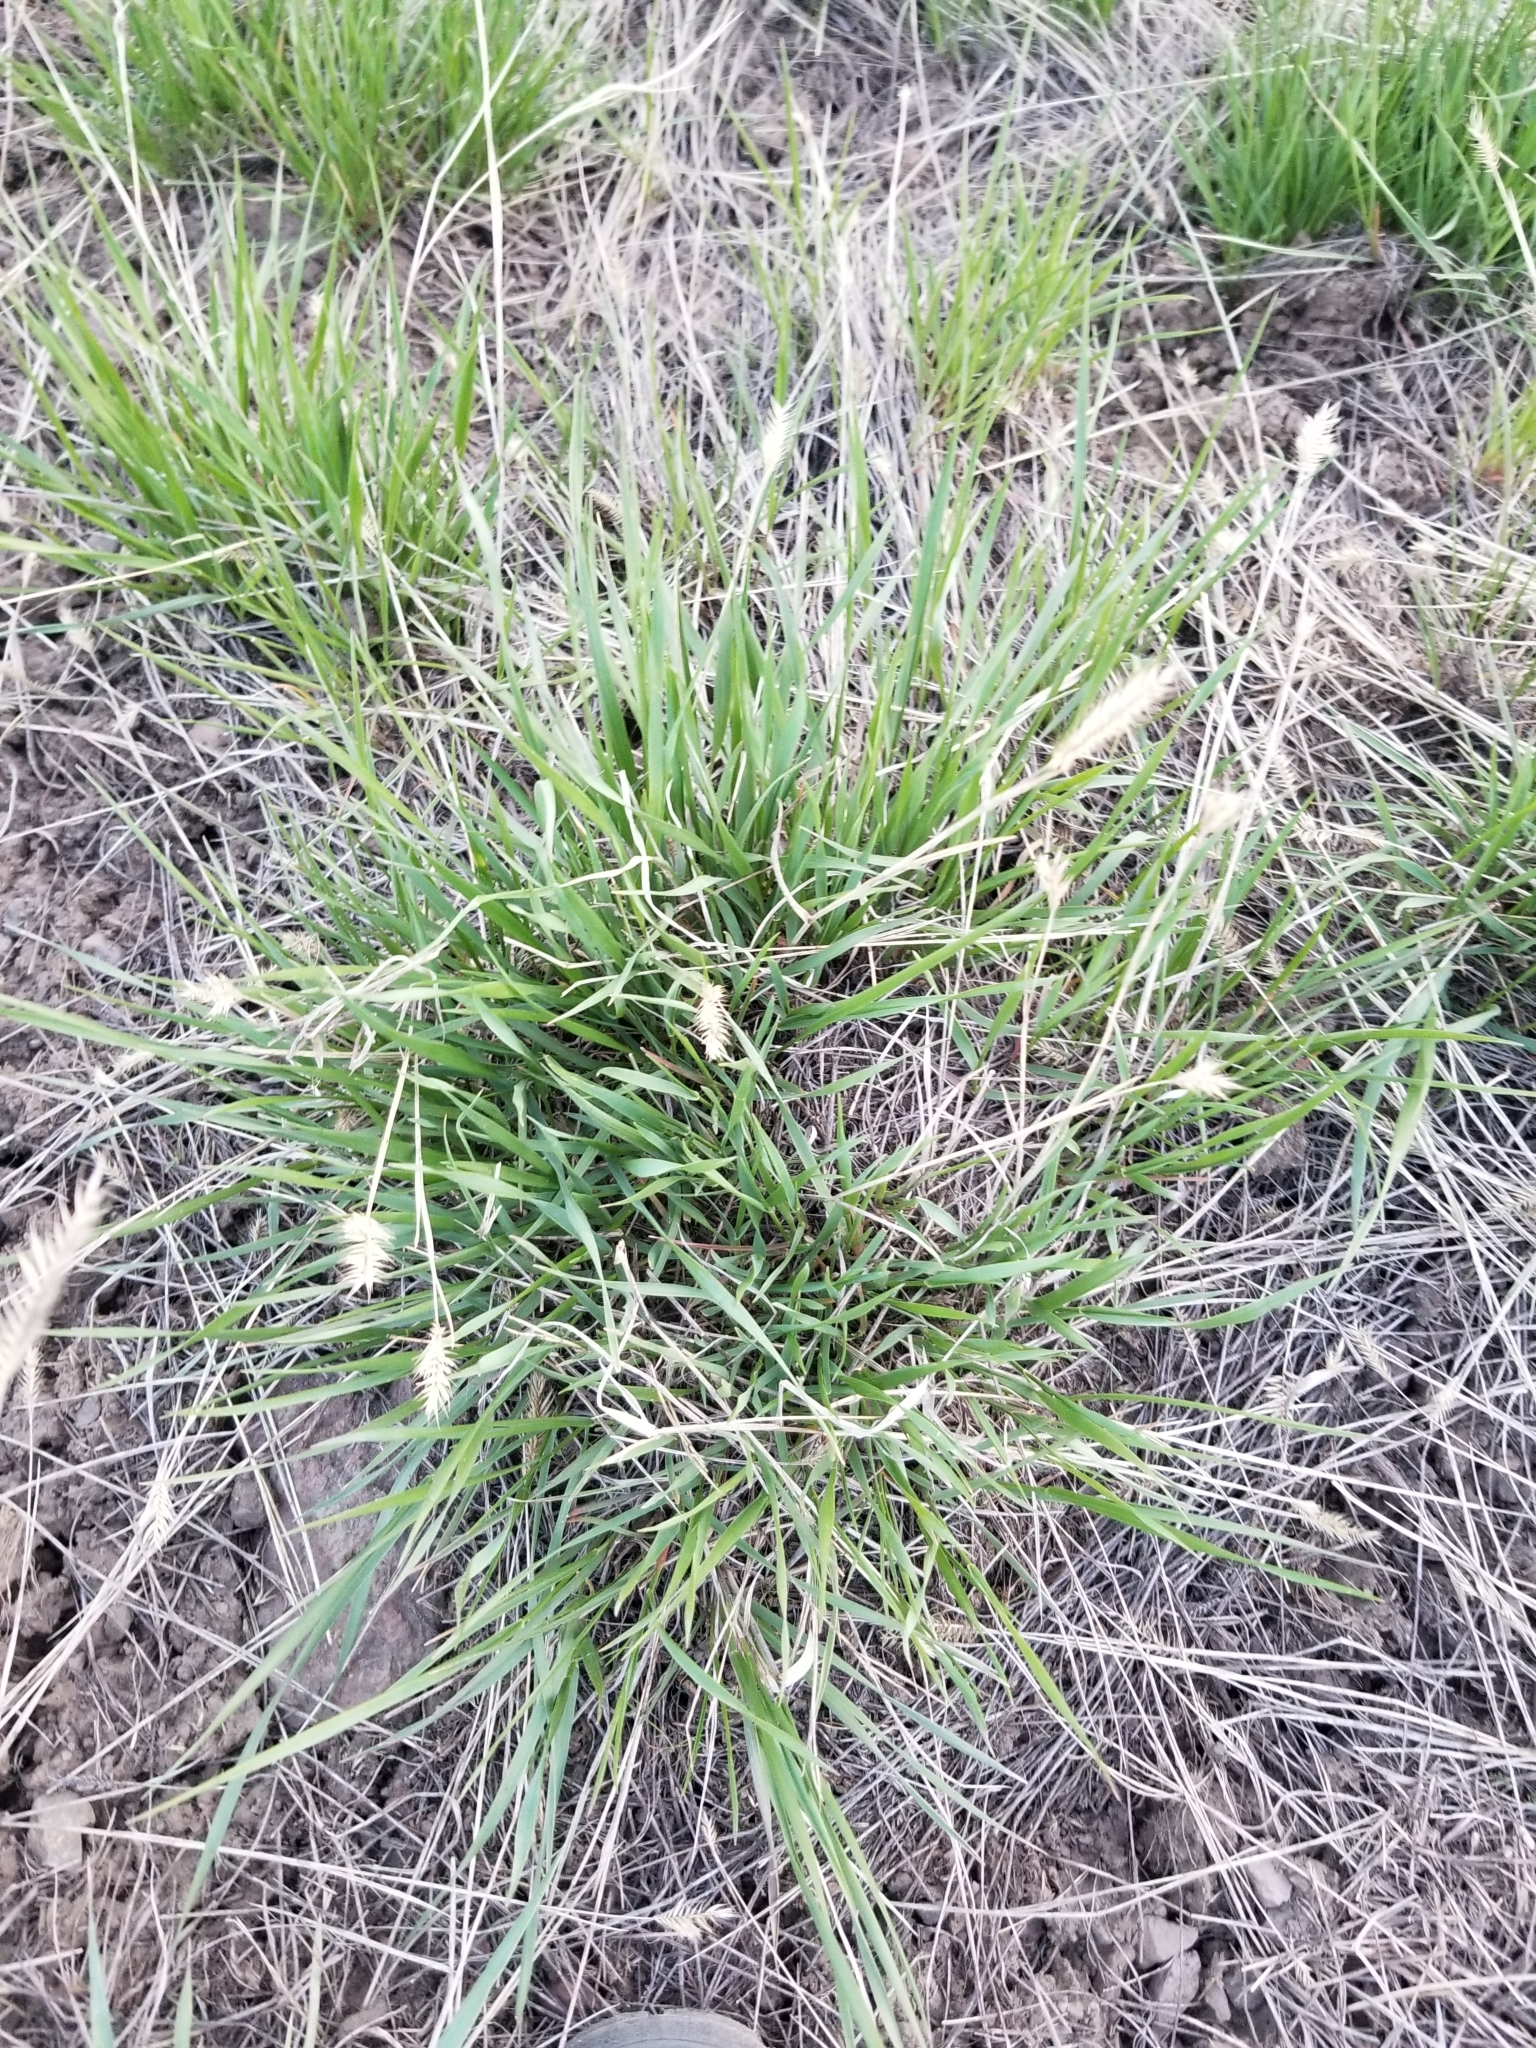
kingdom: Plantae
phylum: Tracheophyta
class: Liliopsida
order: Poales
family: Poaceae
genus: Agropyron
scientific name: Agropyron cristatum
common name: Crested wheatgrass
